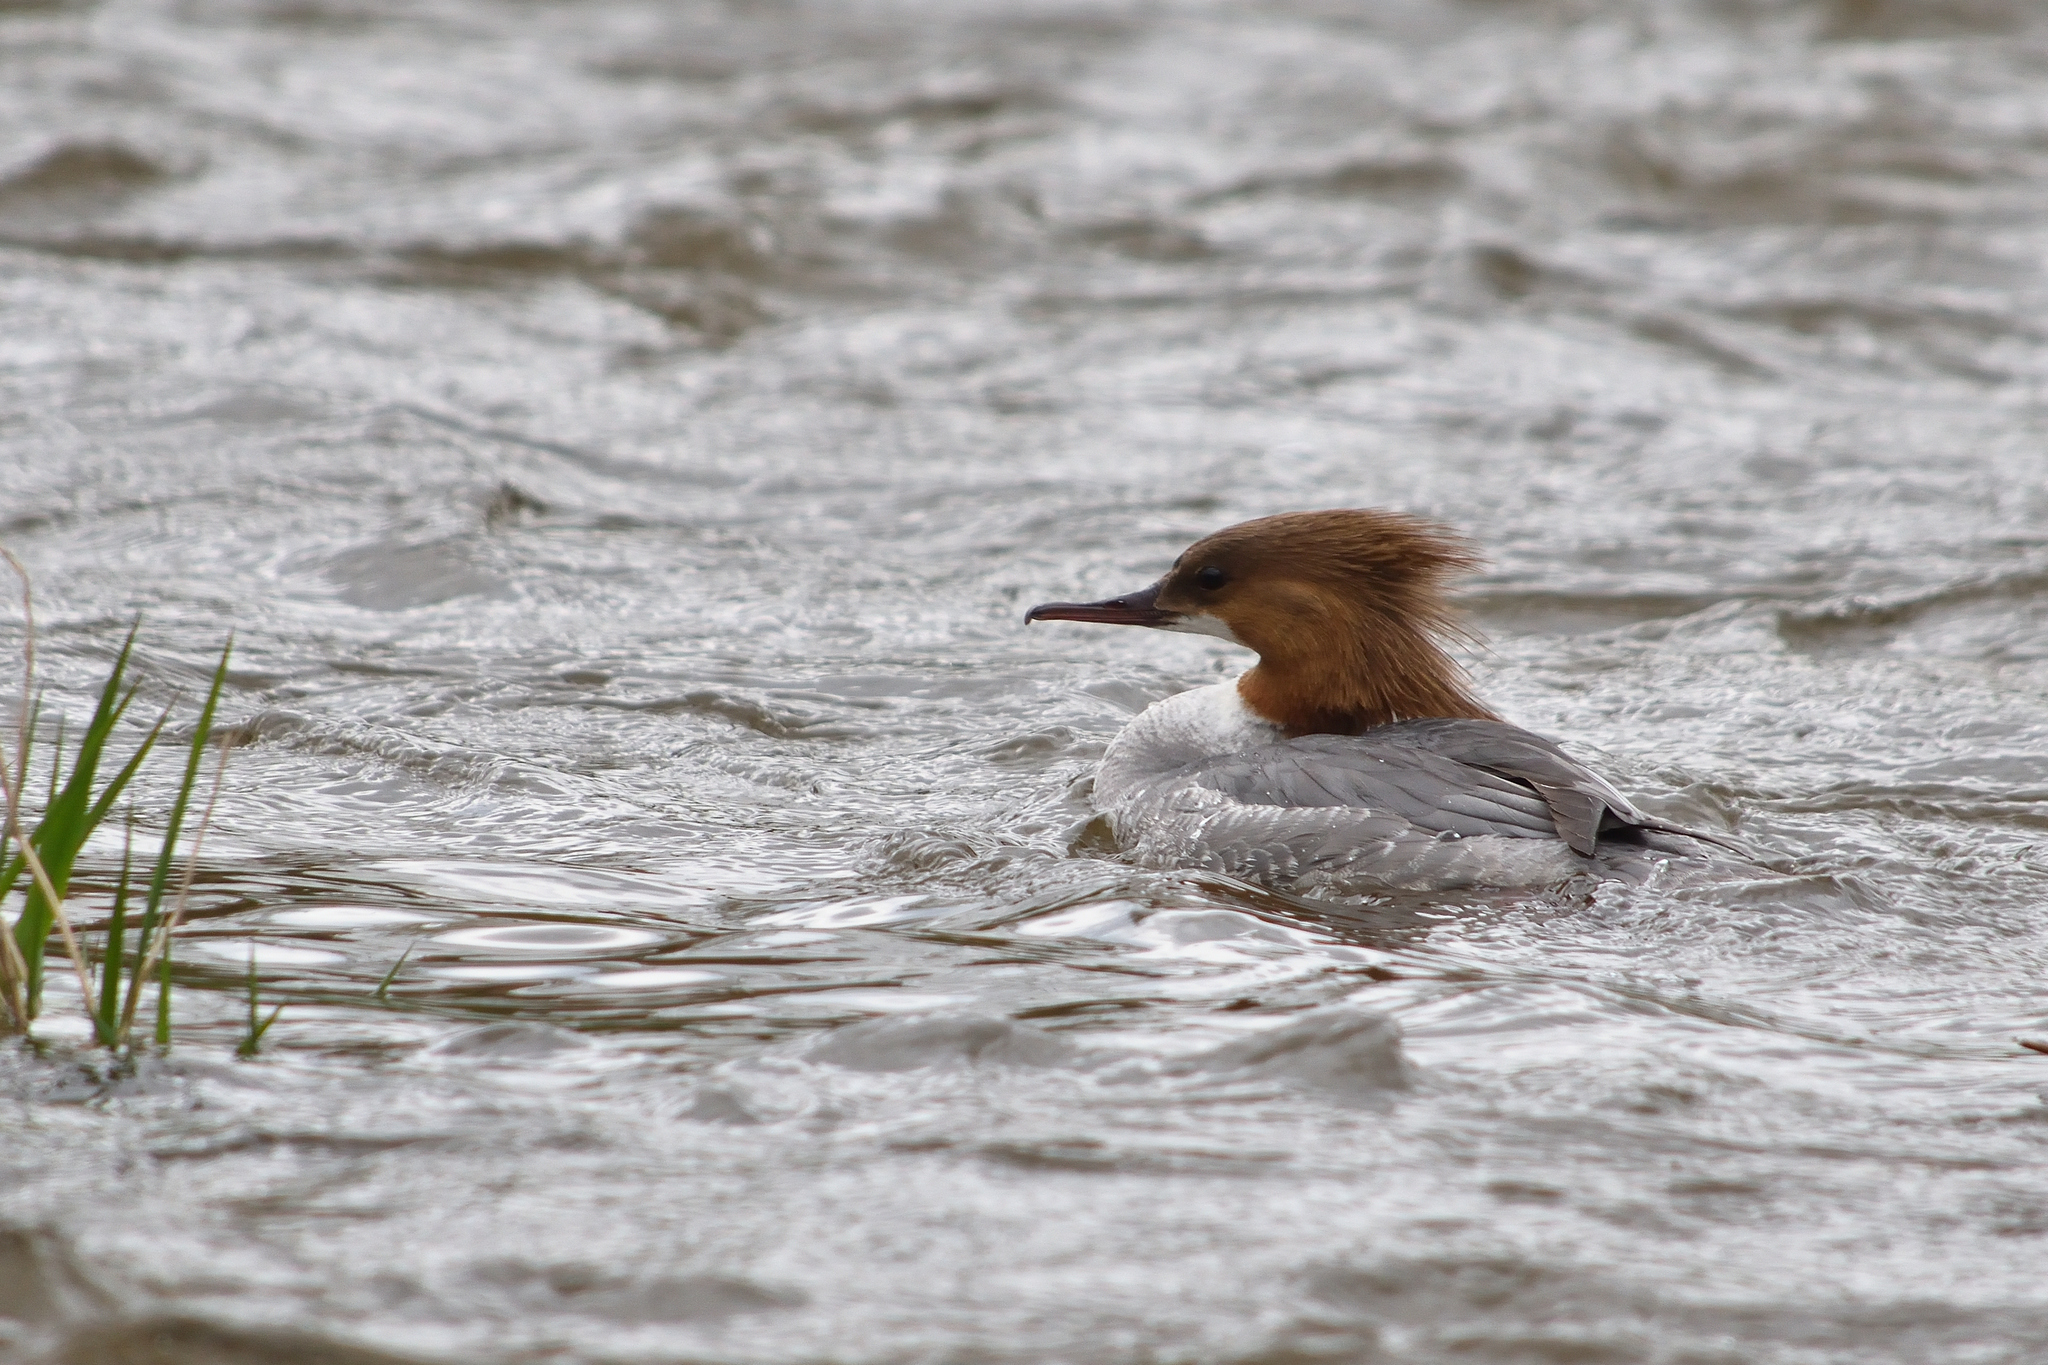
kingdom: Animalia
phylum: Chordata
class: Aves
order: Anseriformes
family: Anatidae
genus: Mergus
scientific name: Mergus merganser
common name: Common merganser
